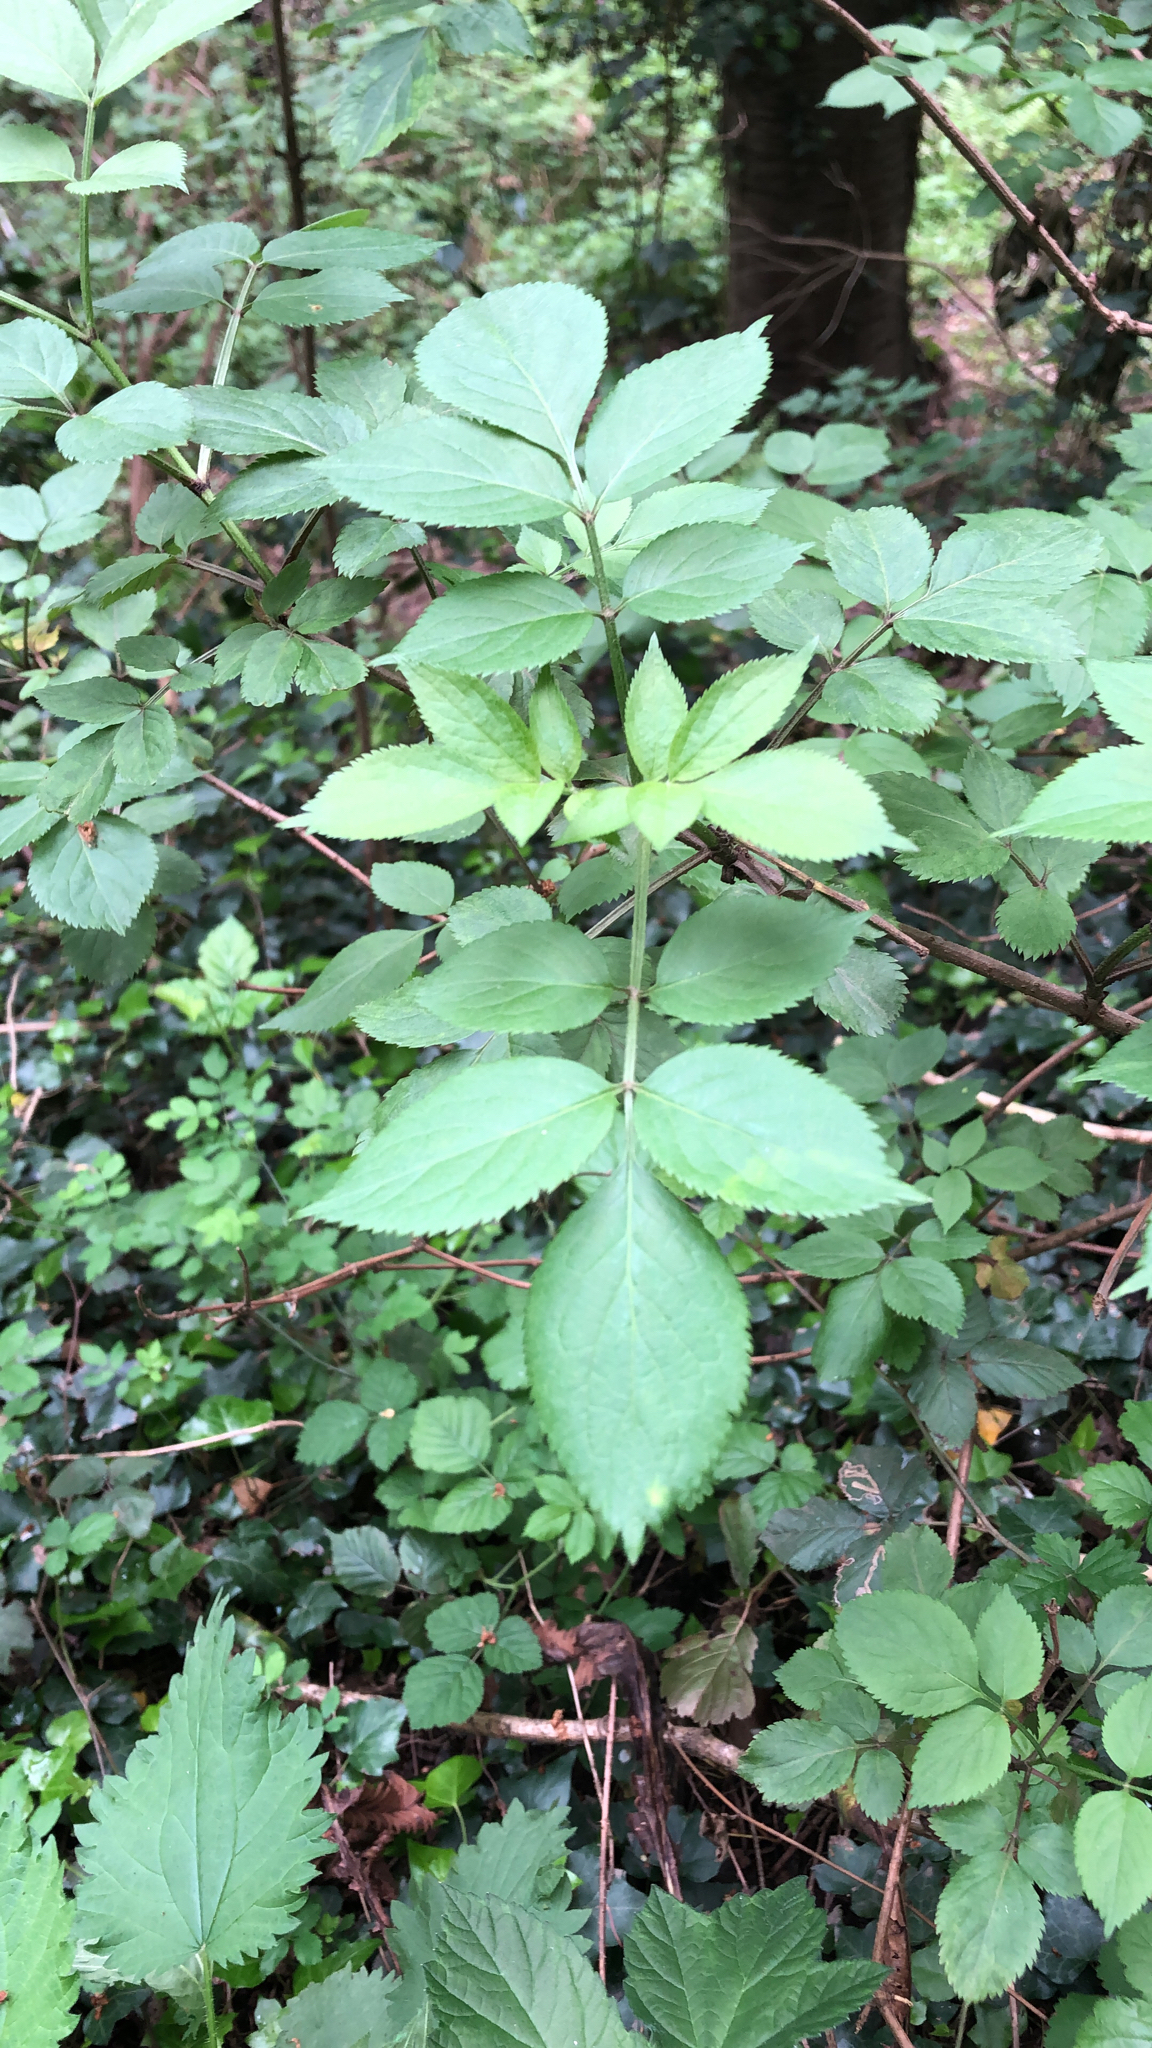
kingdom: Plantae
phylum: Tracheophyta
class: Magnoliopsida
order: Dipsacales
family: Viburnaceae
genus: Sambucus
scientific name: Sambucus nigra
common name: Elder
